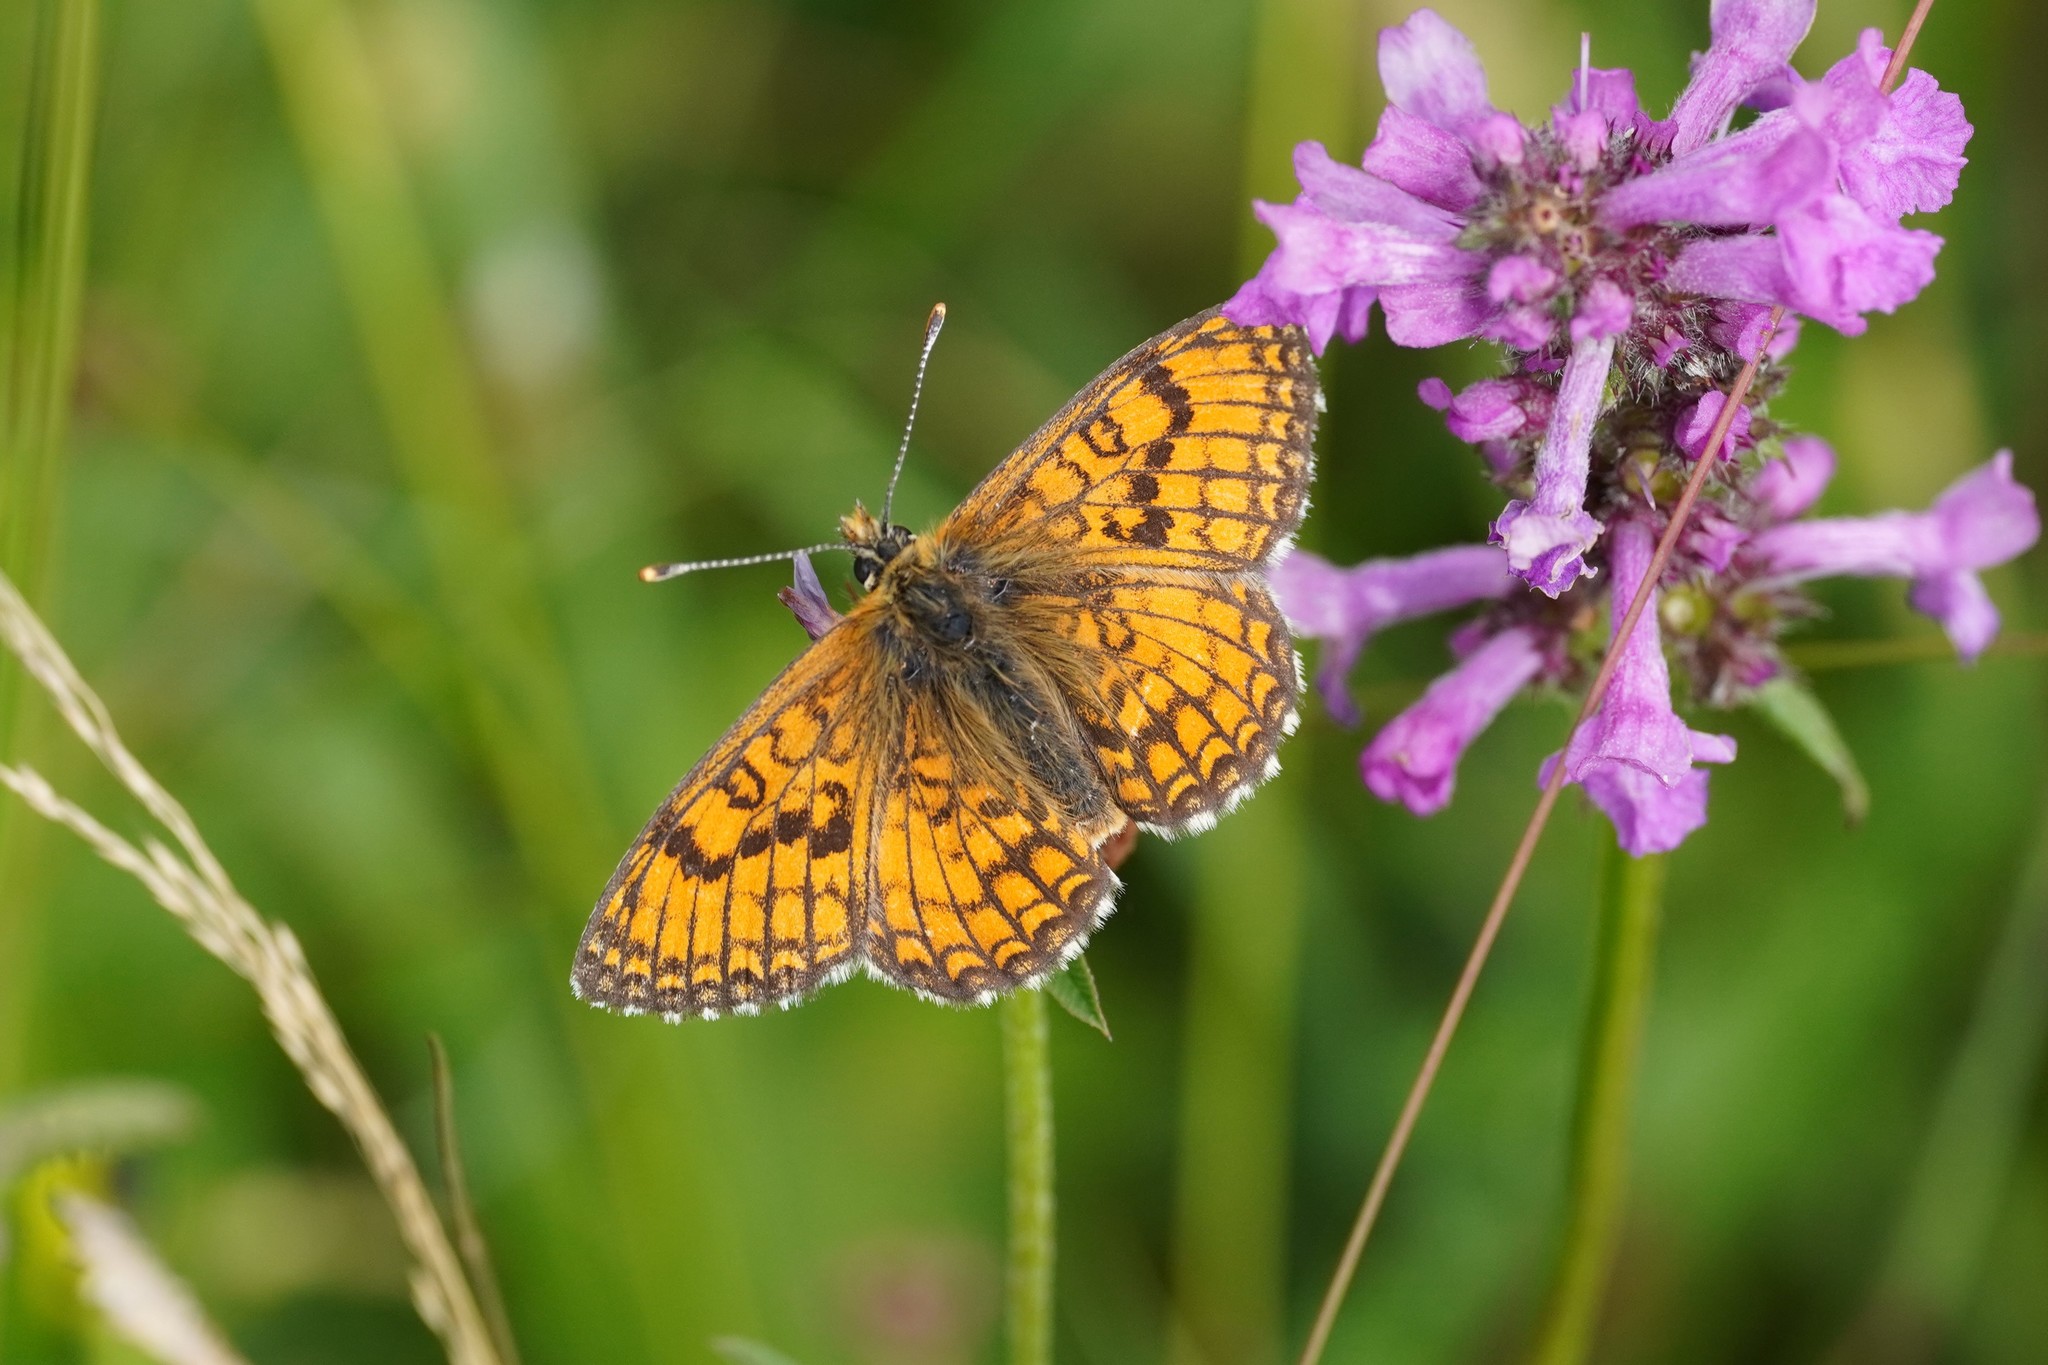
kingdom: Animalia
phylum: Arthropoda
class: Insecta
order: Lepidoptera
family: Nymphalidae
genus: Mellicta
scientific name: Mellicta parthenoides
